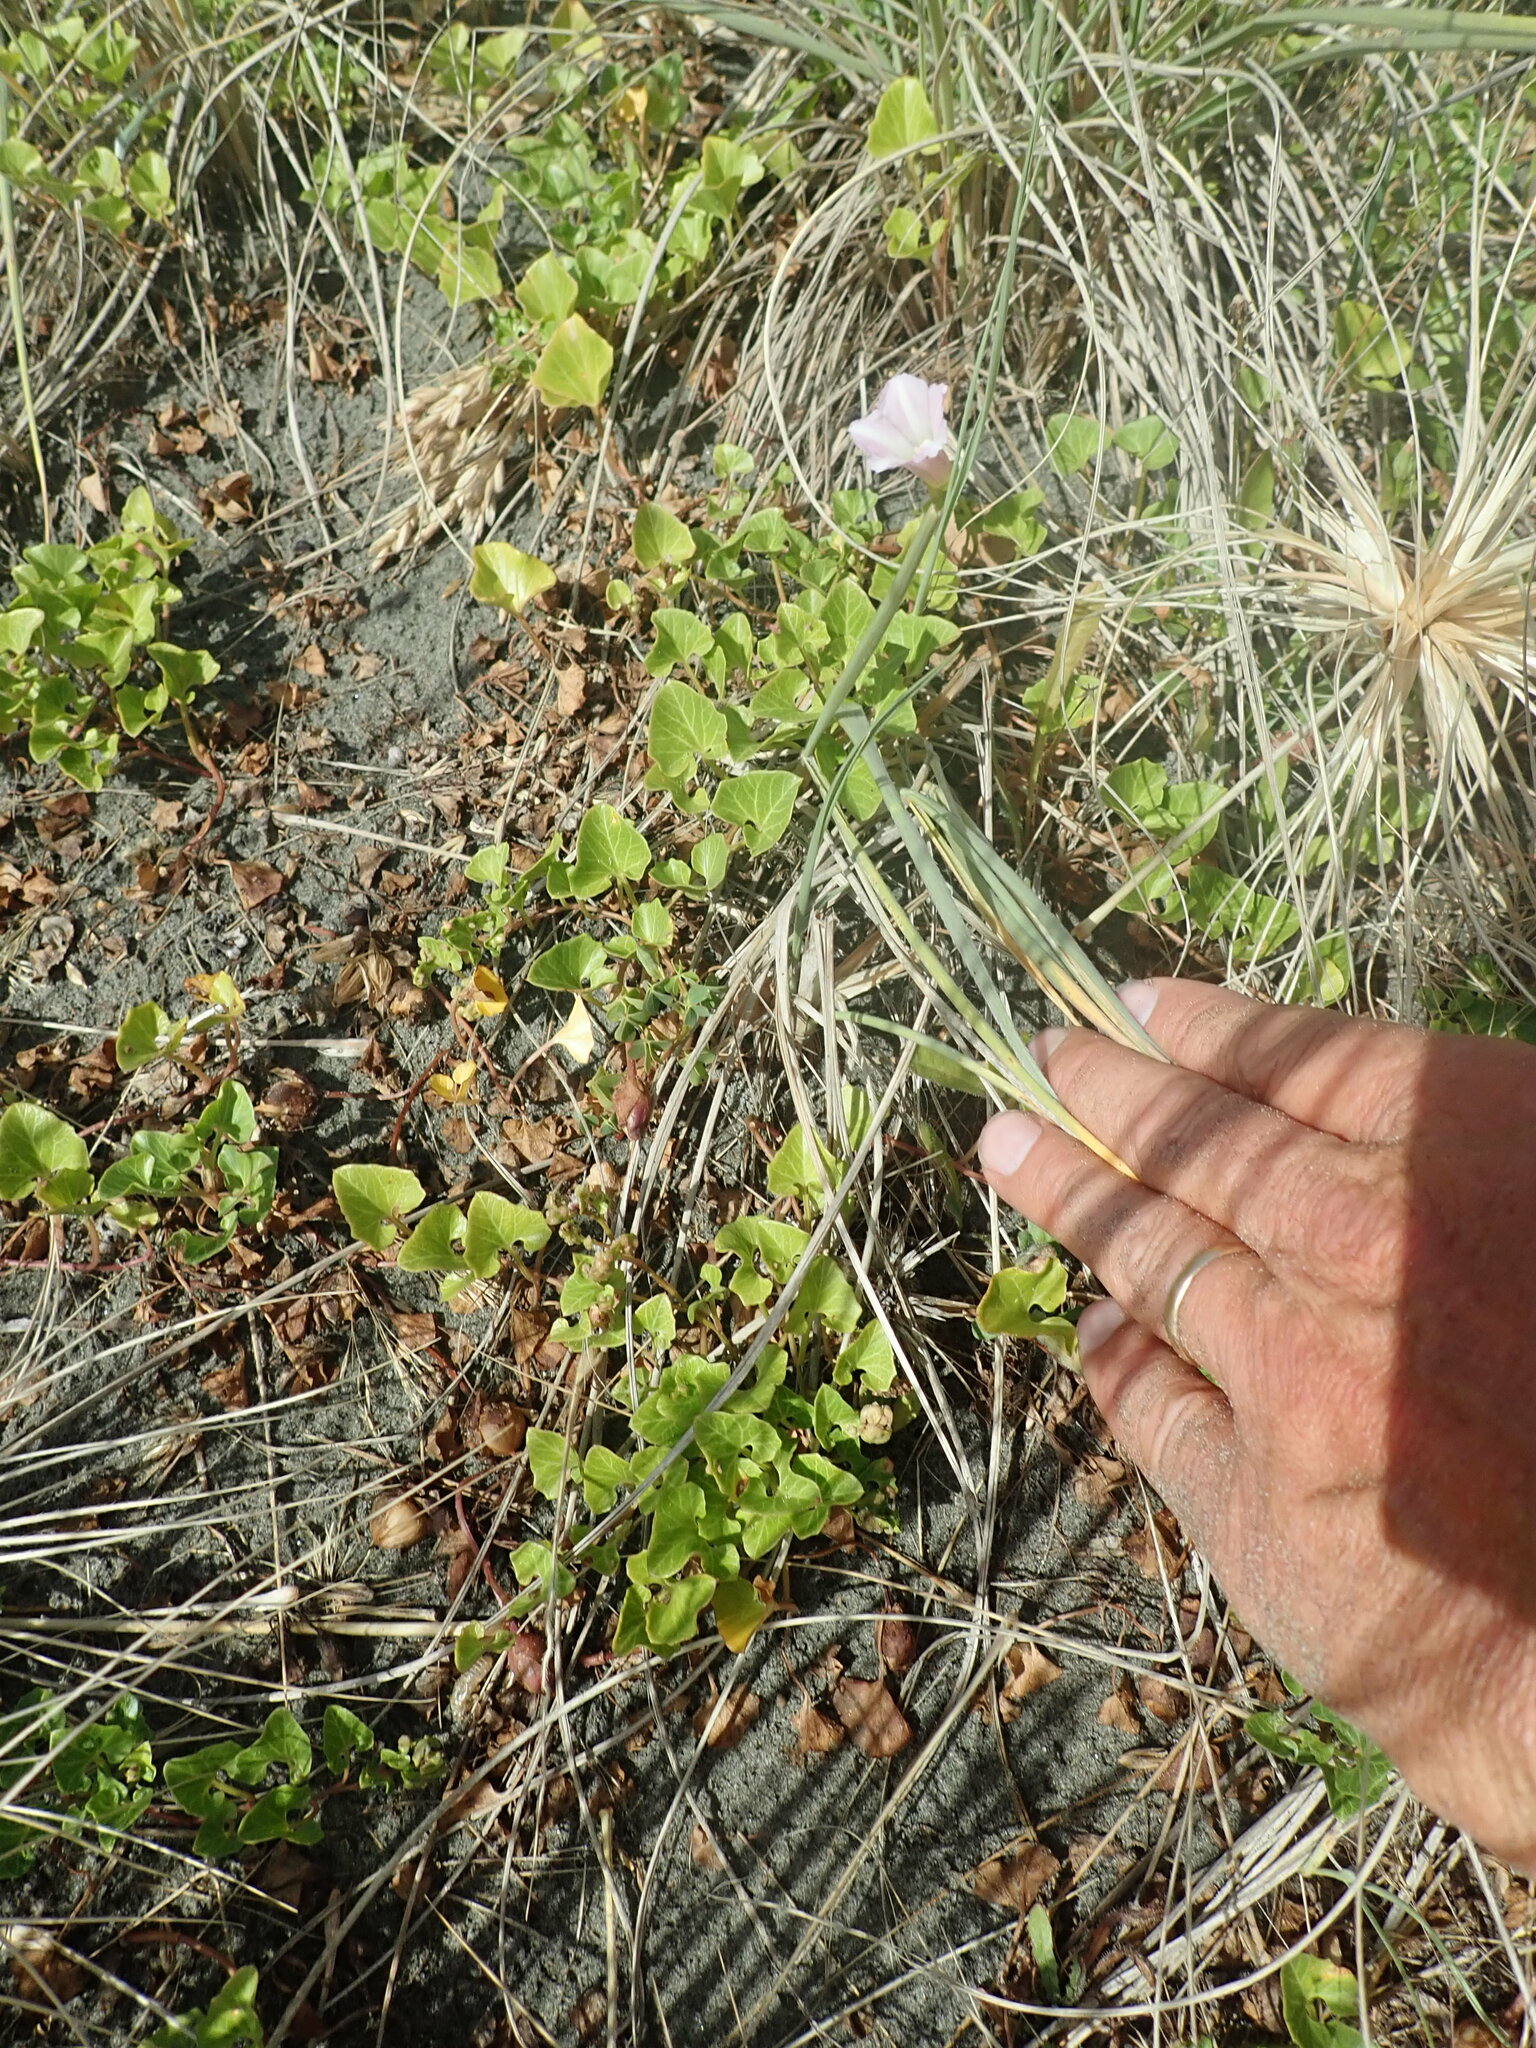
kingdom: Plantae
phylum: Tracheophyta
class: Magnoliopsida
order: Solanales
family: Convolvulaceae
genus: Calystegia
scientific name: Calystegia soldanella
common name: Sea bindweed
